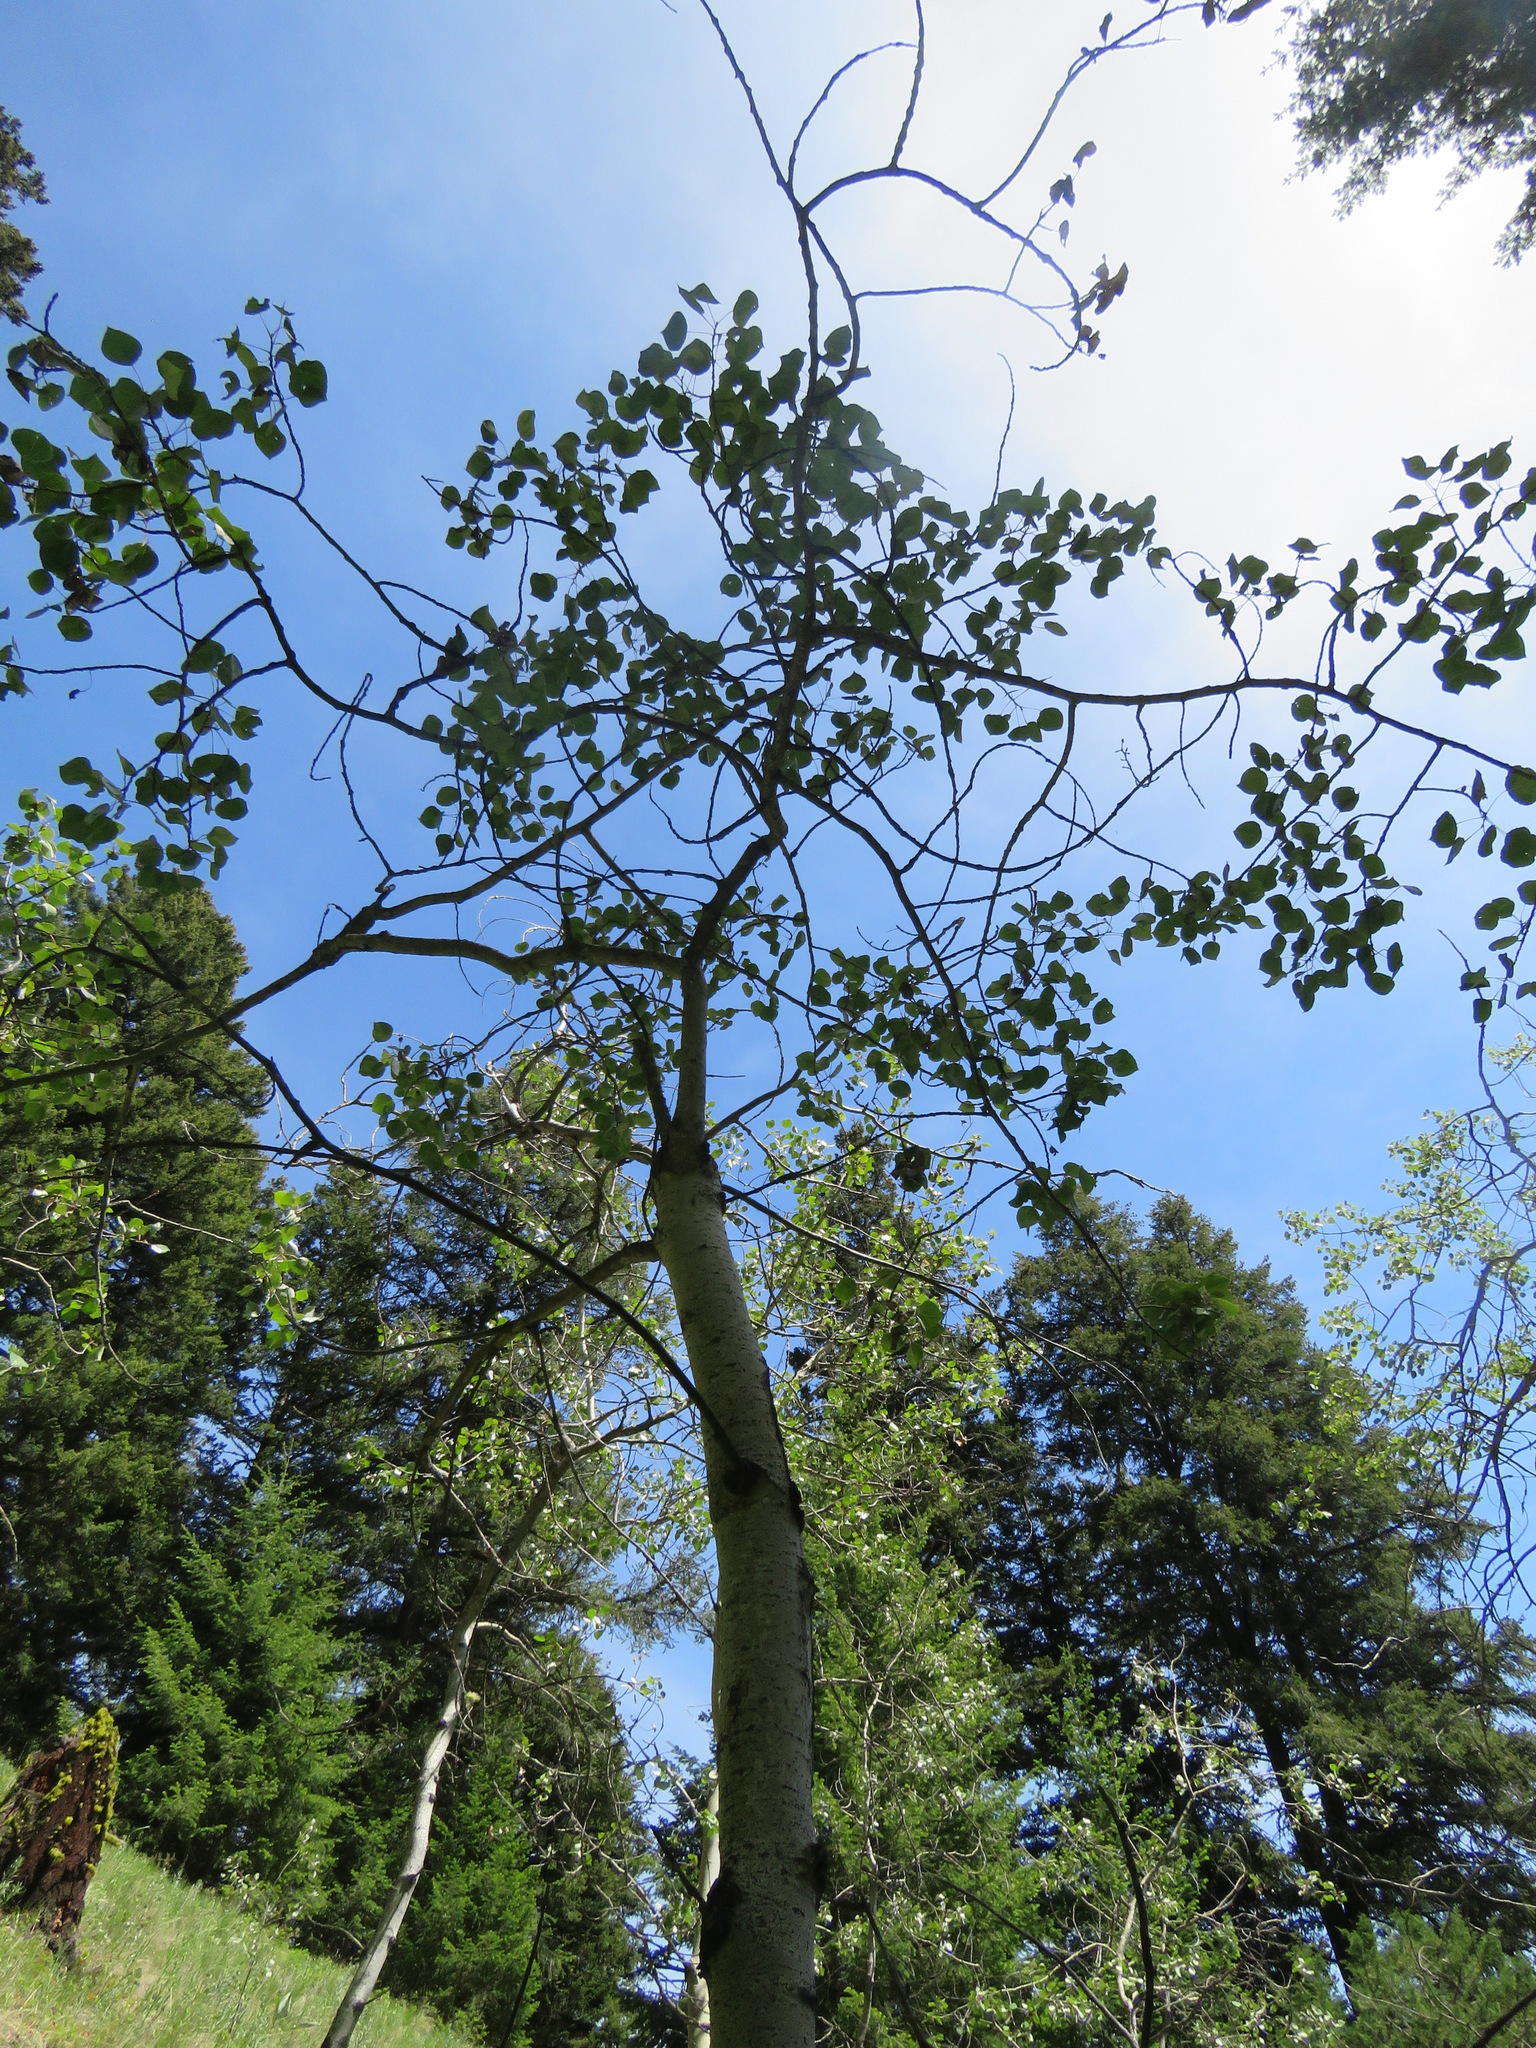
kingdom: Plantae
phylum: Tracheophyta
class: Magnoliopsida
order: Malpighiales
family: Salicaceae
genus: Populus
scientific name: Populus tremuloides
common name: Quaking aspen
